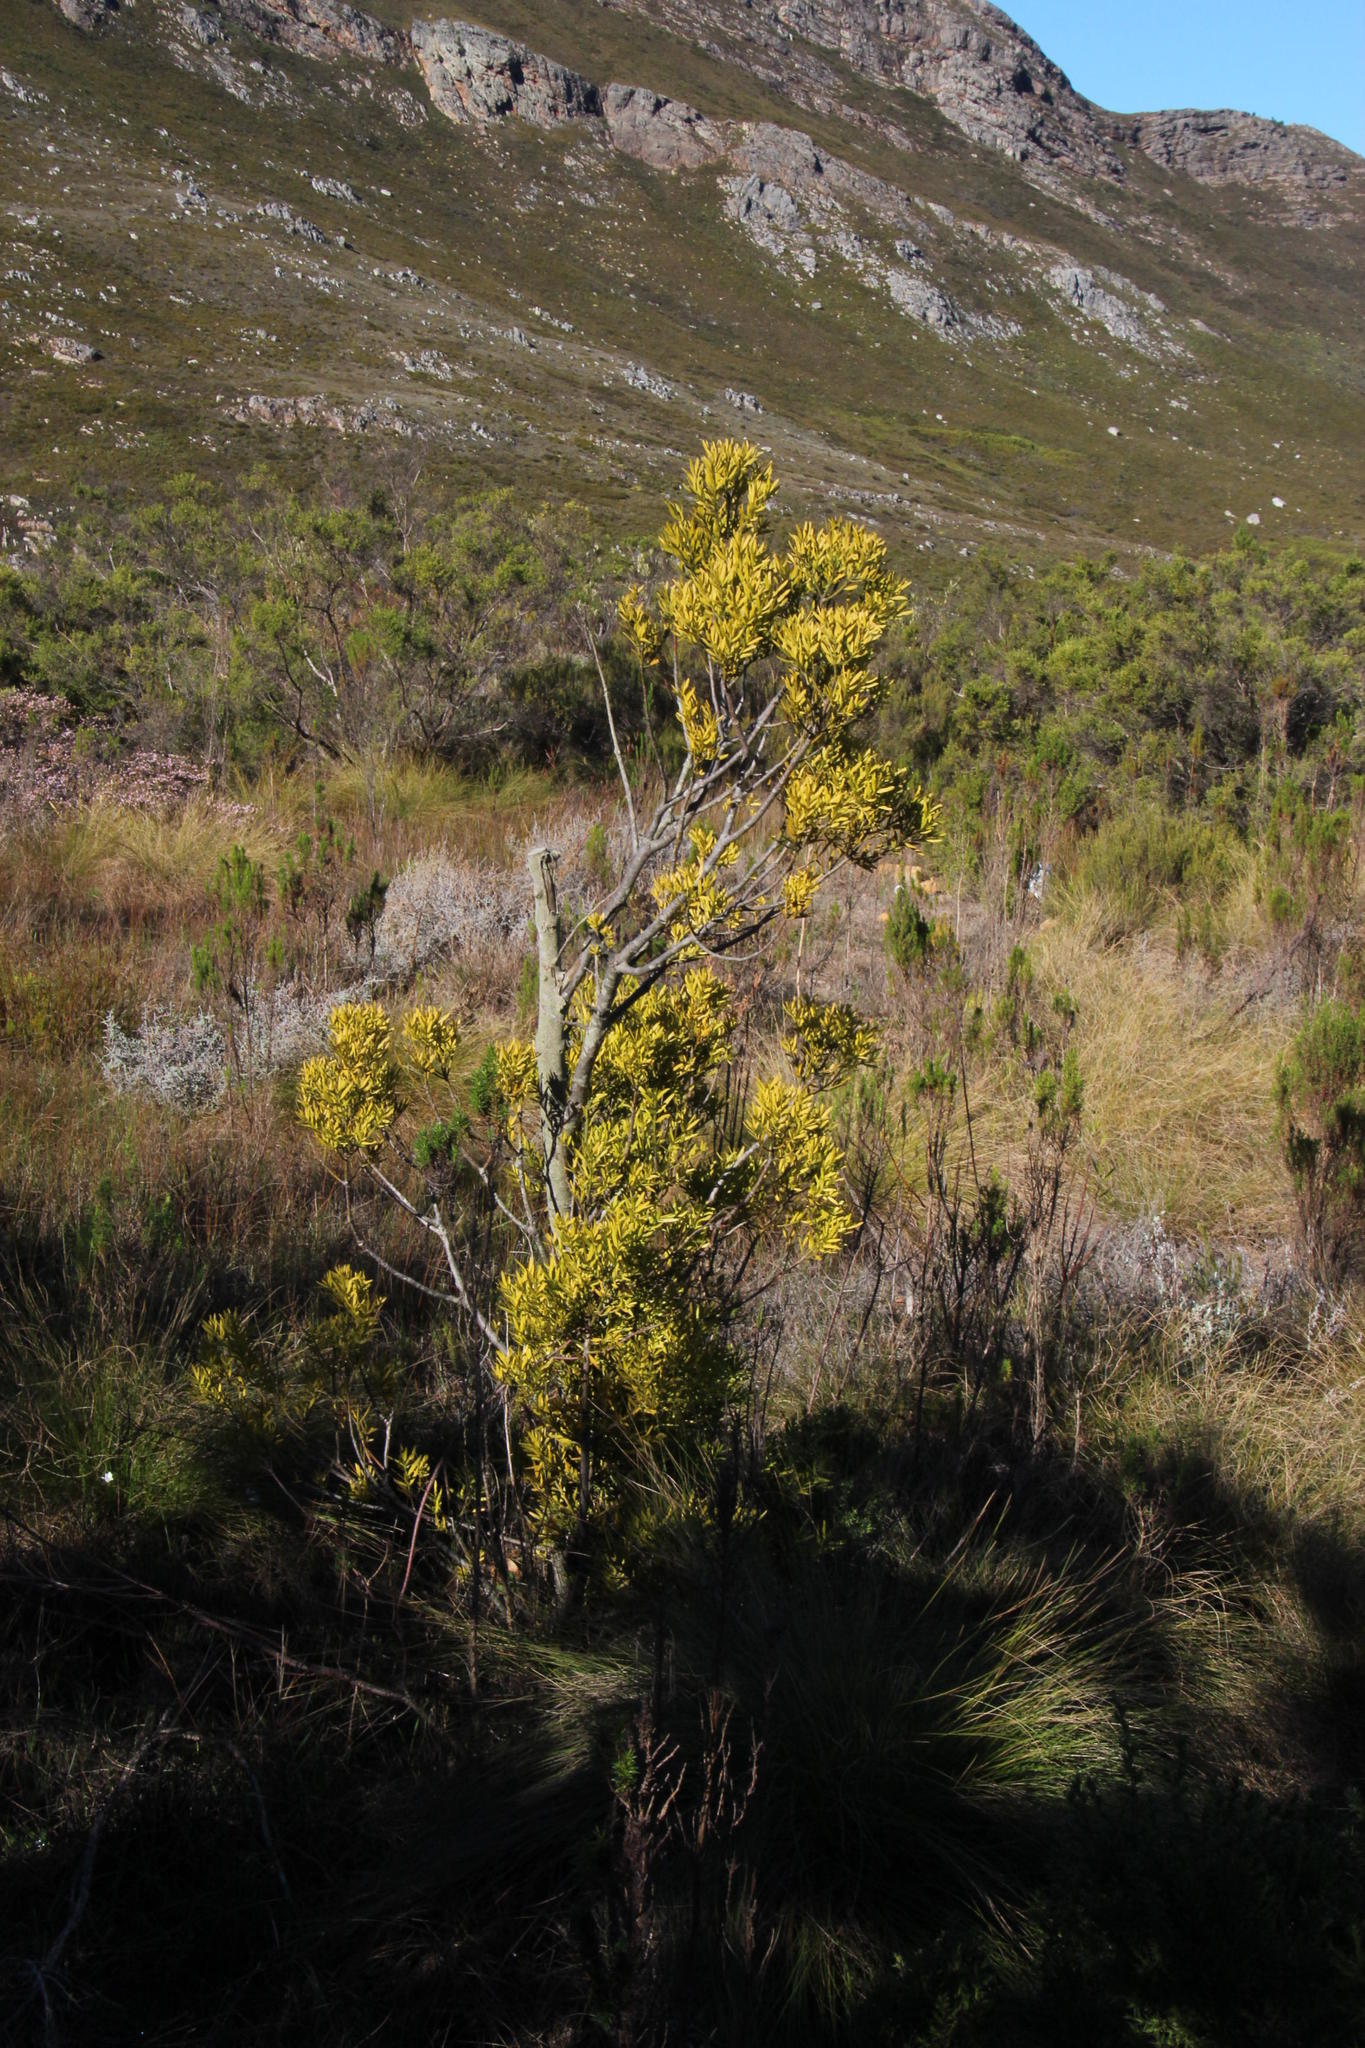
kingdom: Plantae
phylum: Tracheophyta
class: Pinopsida
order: Pinales
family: Podocarpaceae
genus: Afrocarpus
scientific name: Afrocarpus falcatus
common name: Bastard yellowwood
